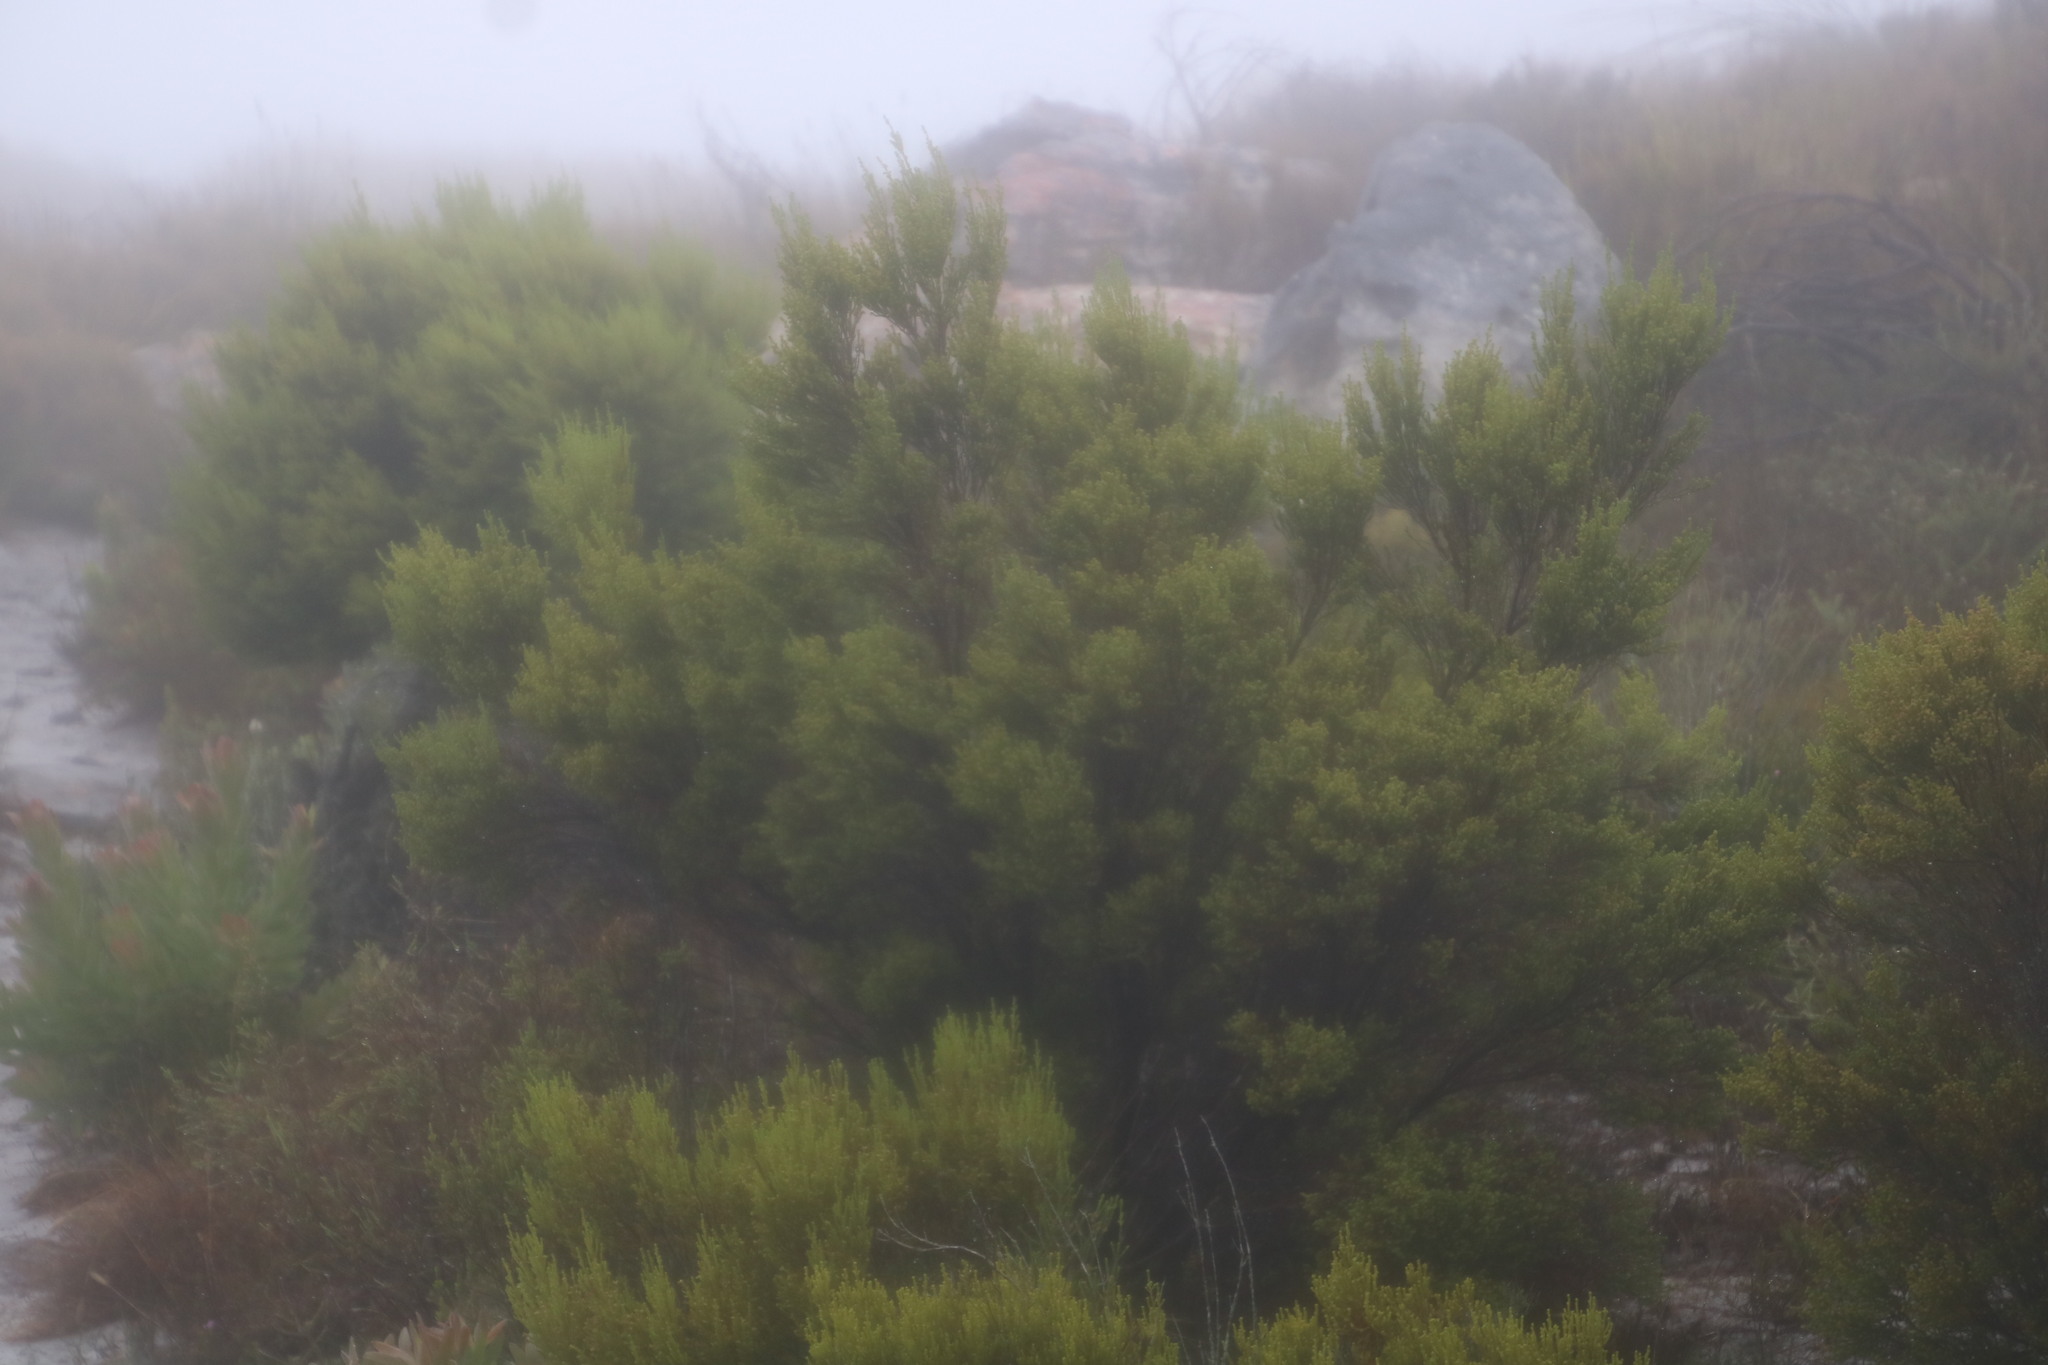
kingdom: Plantae
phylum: Tracheophyta
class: Magnoliopsida
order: Ericales
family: Ericaceae
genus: Erica
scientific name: Erica tristis
